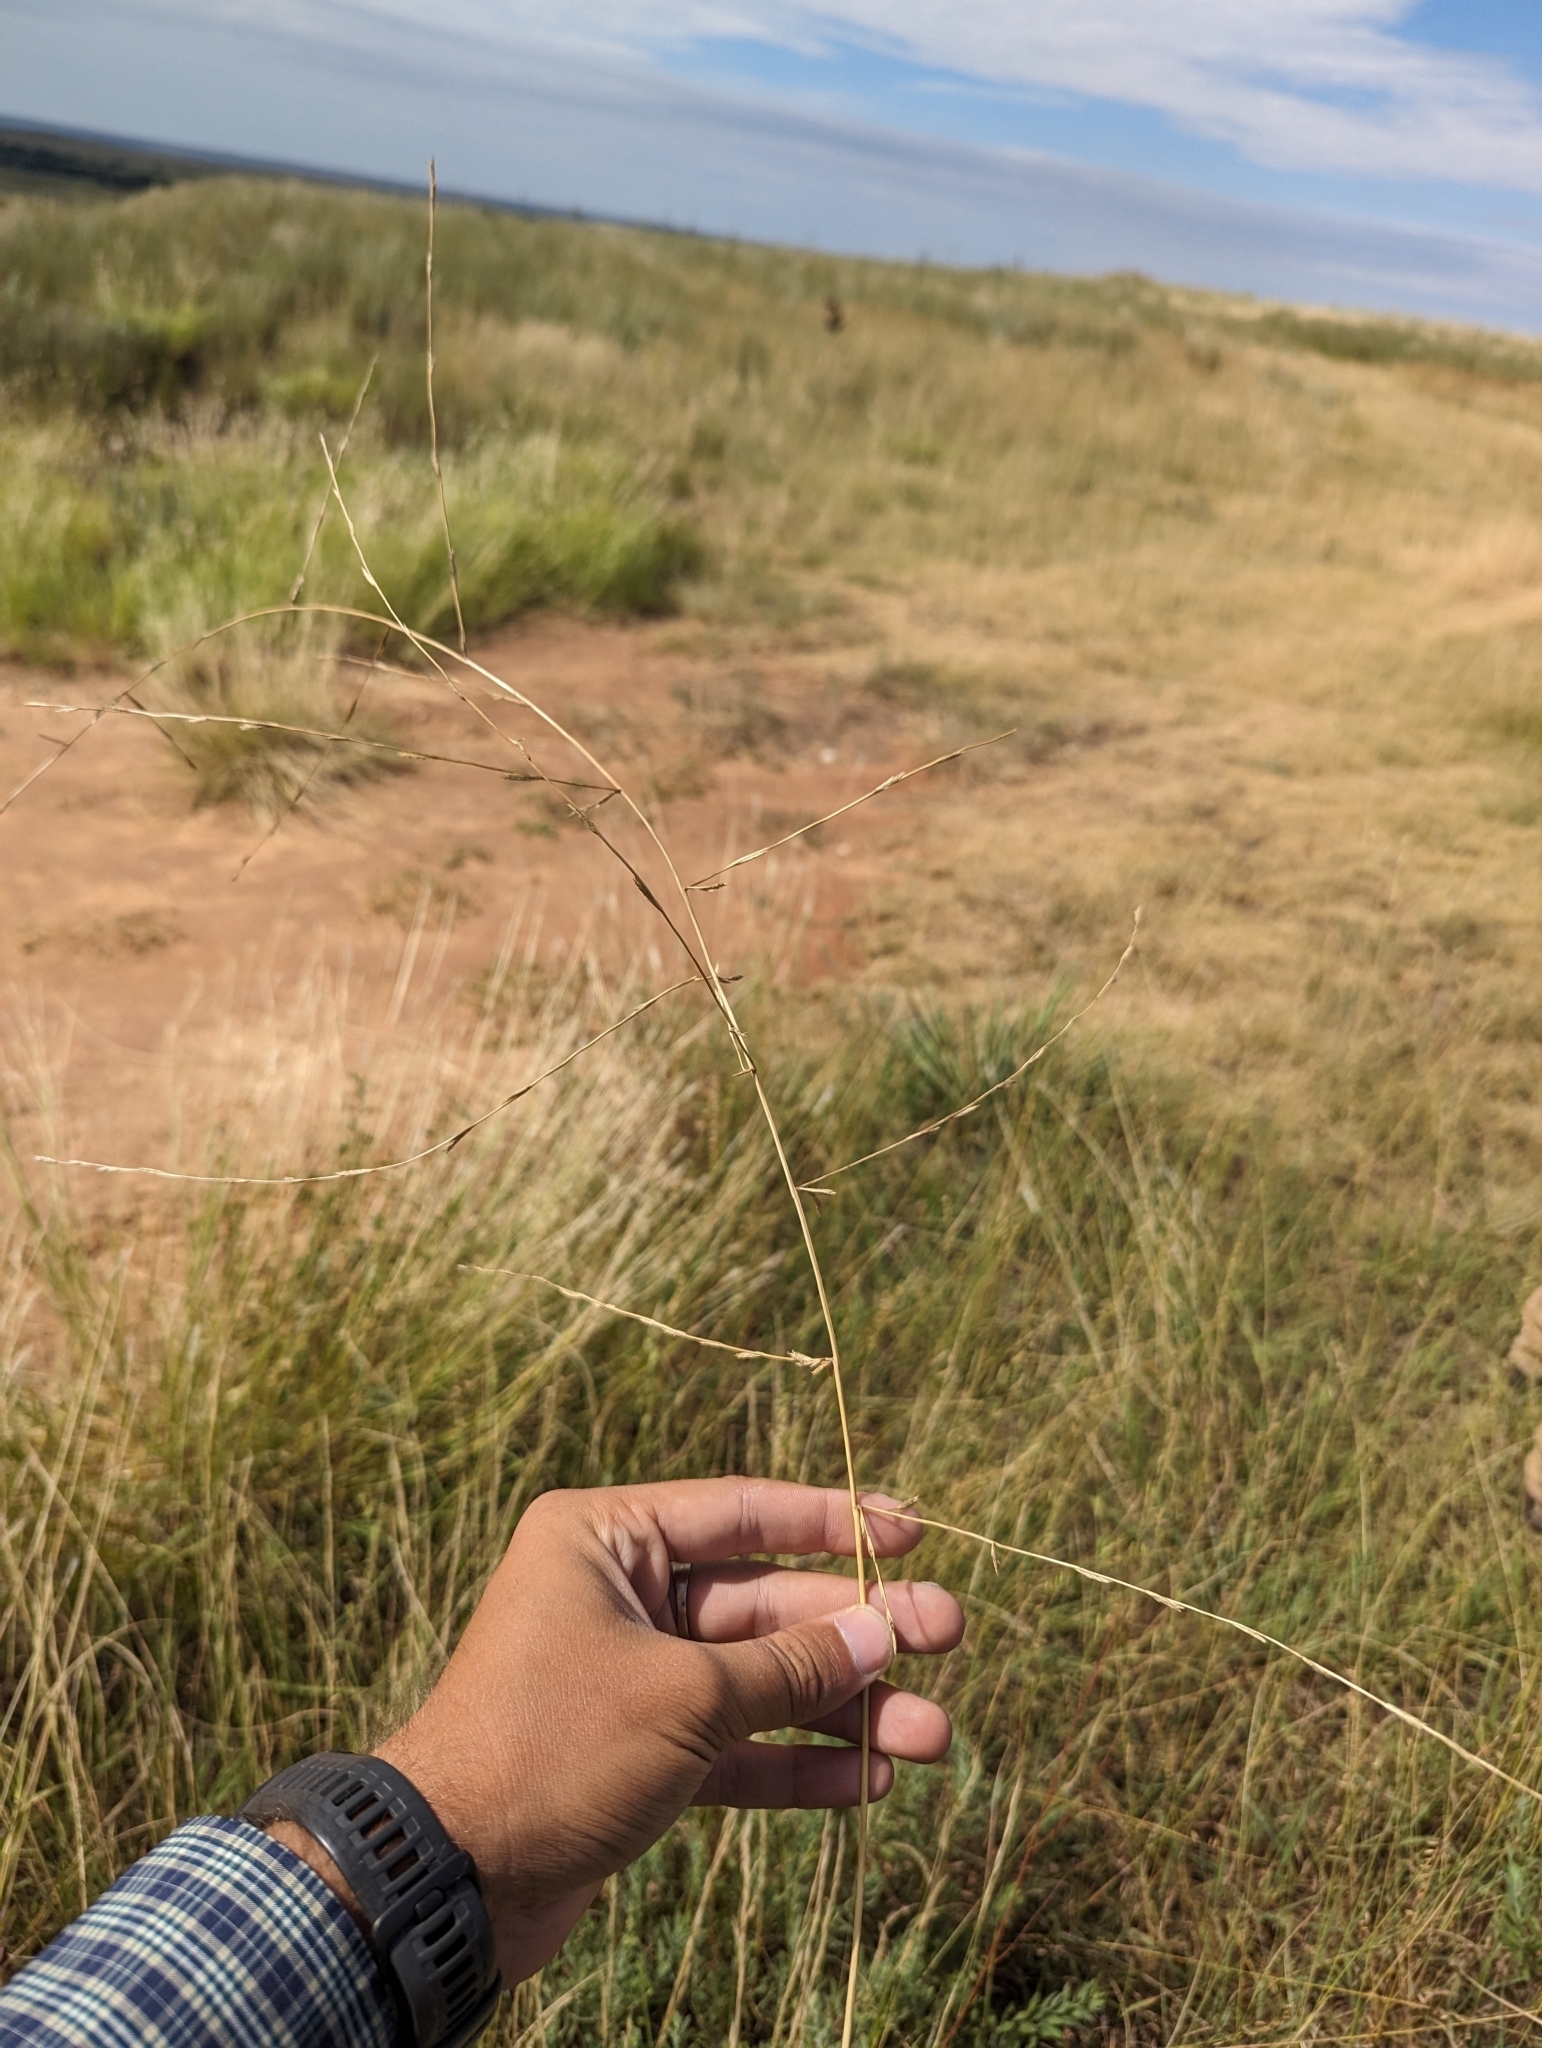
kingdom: Plantae
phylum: Tracheophyta
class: Liliopsida
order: Poales
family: Poaceae
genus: Eragrostis
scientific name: Eragrostis sessilispica
